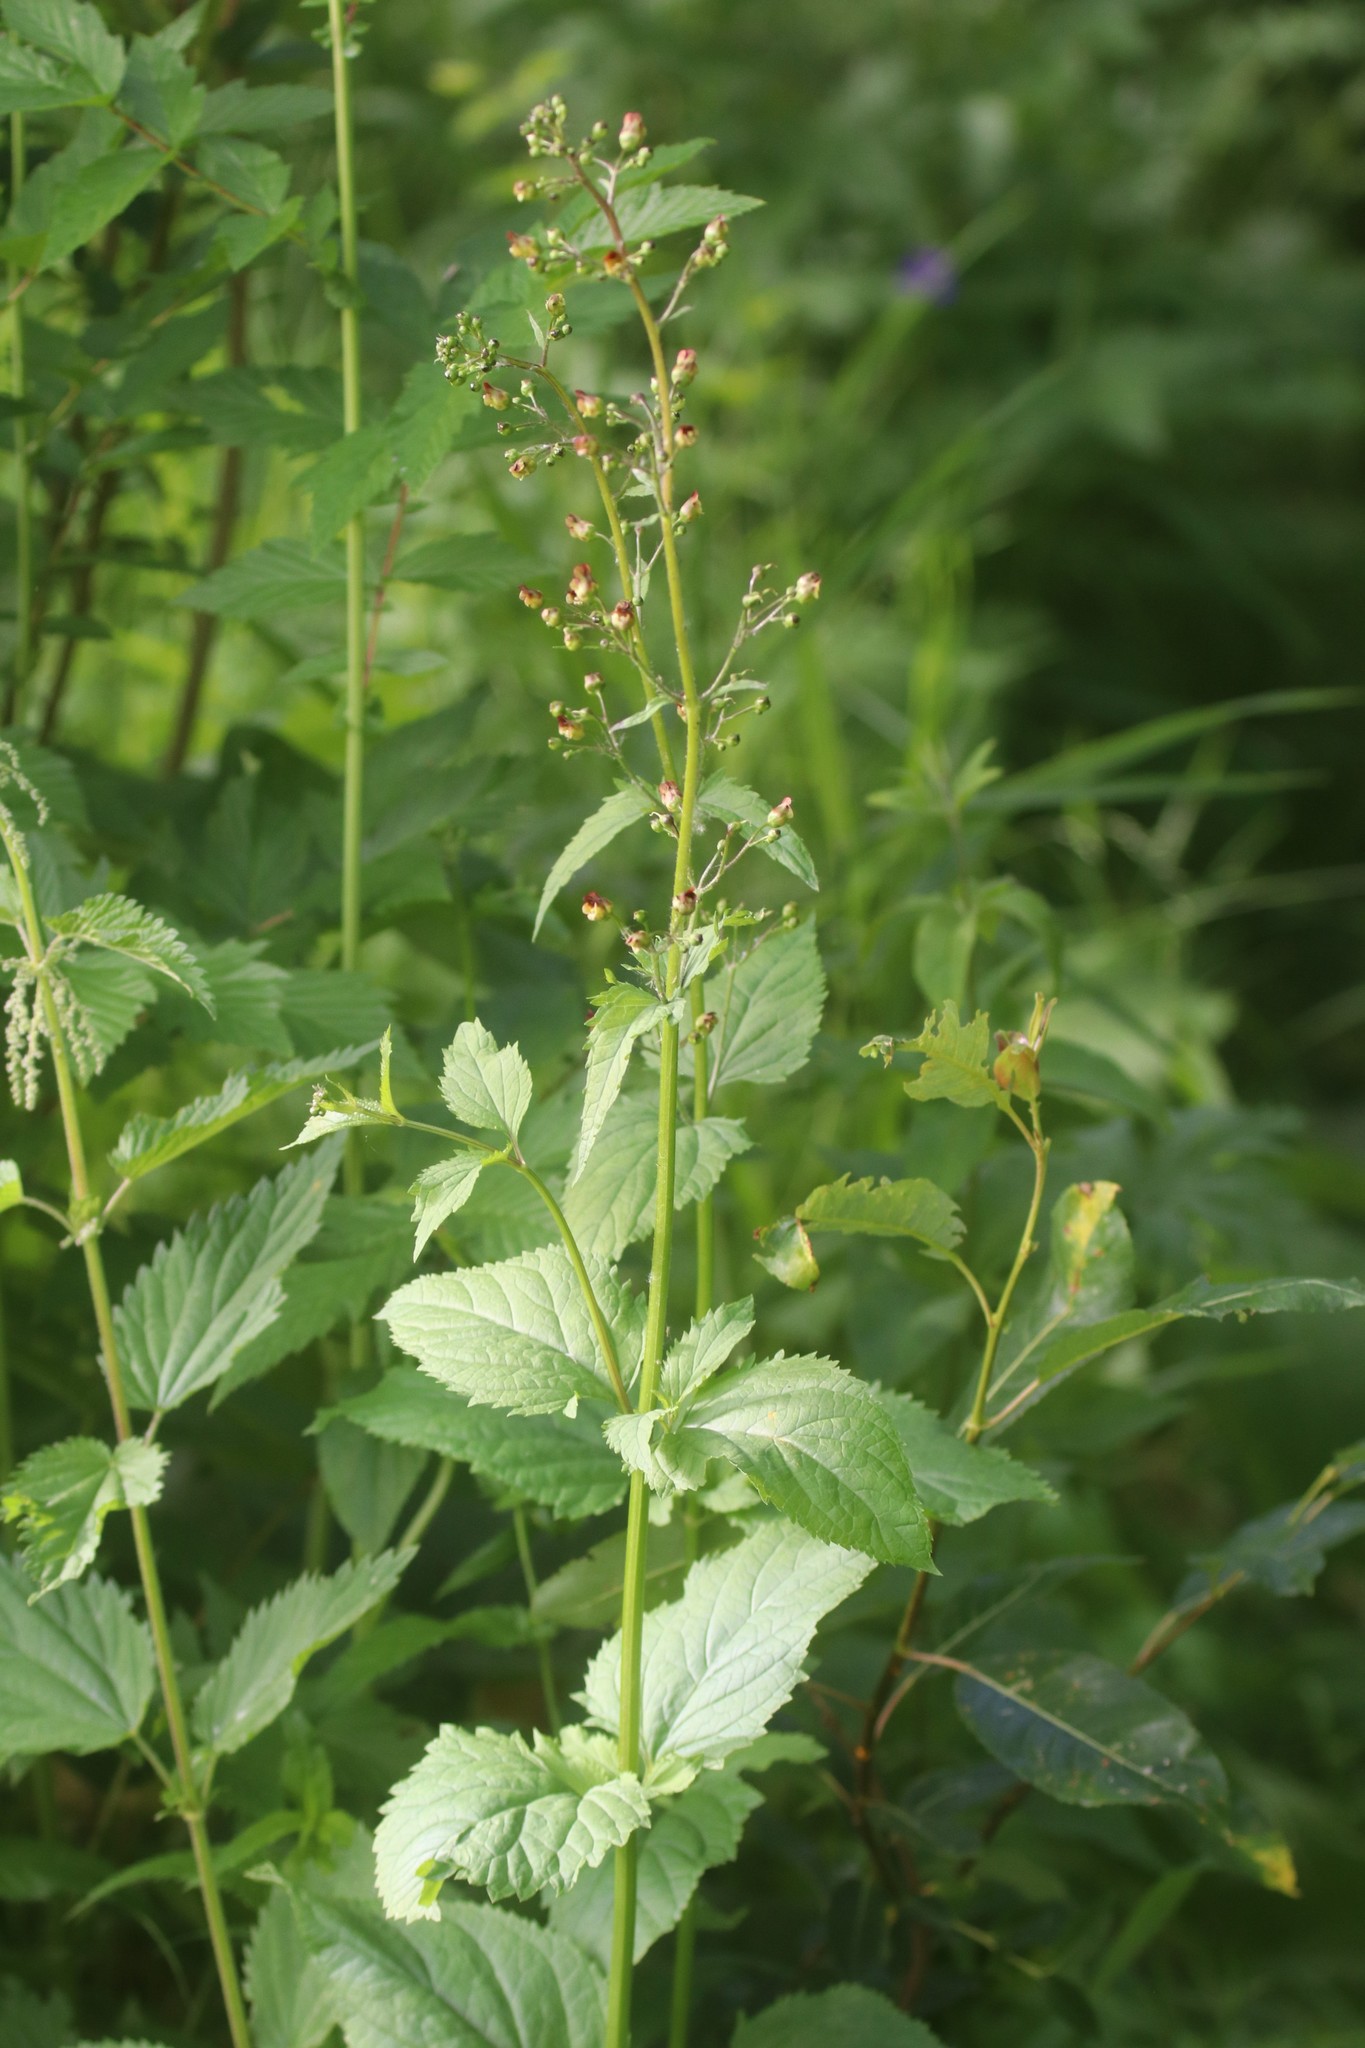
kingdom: Plantae
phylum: Tracheophyta
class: Magnoliopsida
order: Lamiales
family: Scrophulariaceae
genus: Scrophularia
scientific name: Scrophularia nodosa
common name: Common figwort
